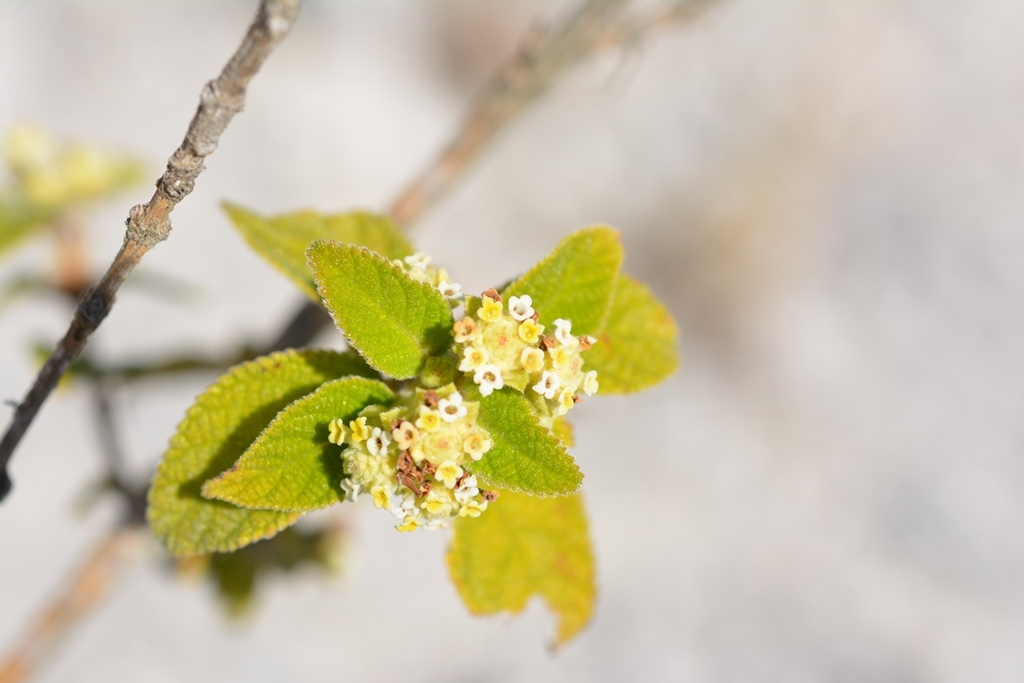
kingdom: Plantae
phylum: Tracheophyta
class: Magnoliopsida
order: Lamiales
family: Verbenaceae
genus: Lippia
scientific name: Lippia chiapasensis
